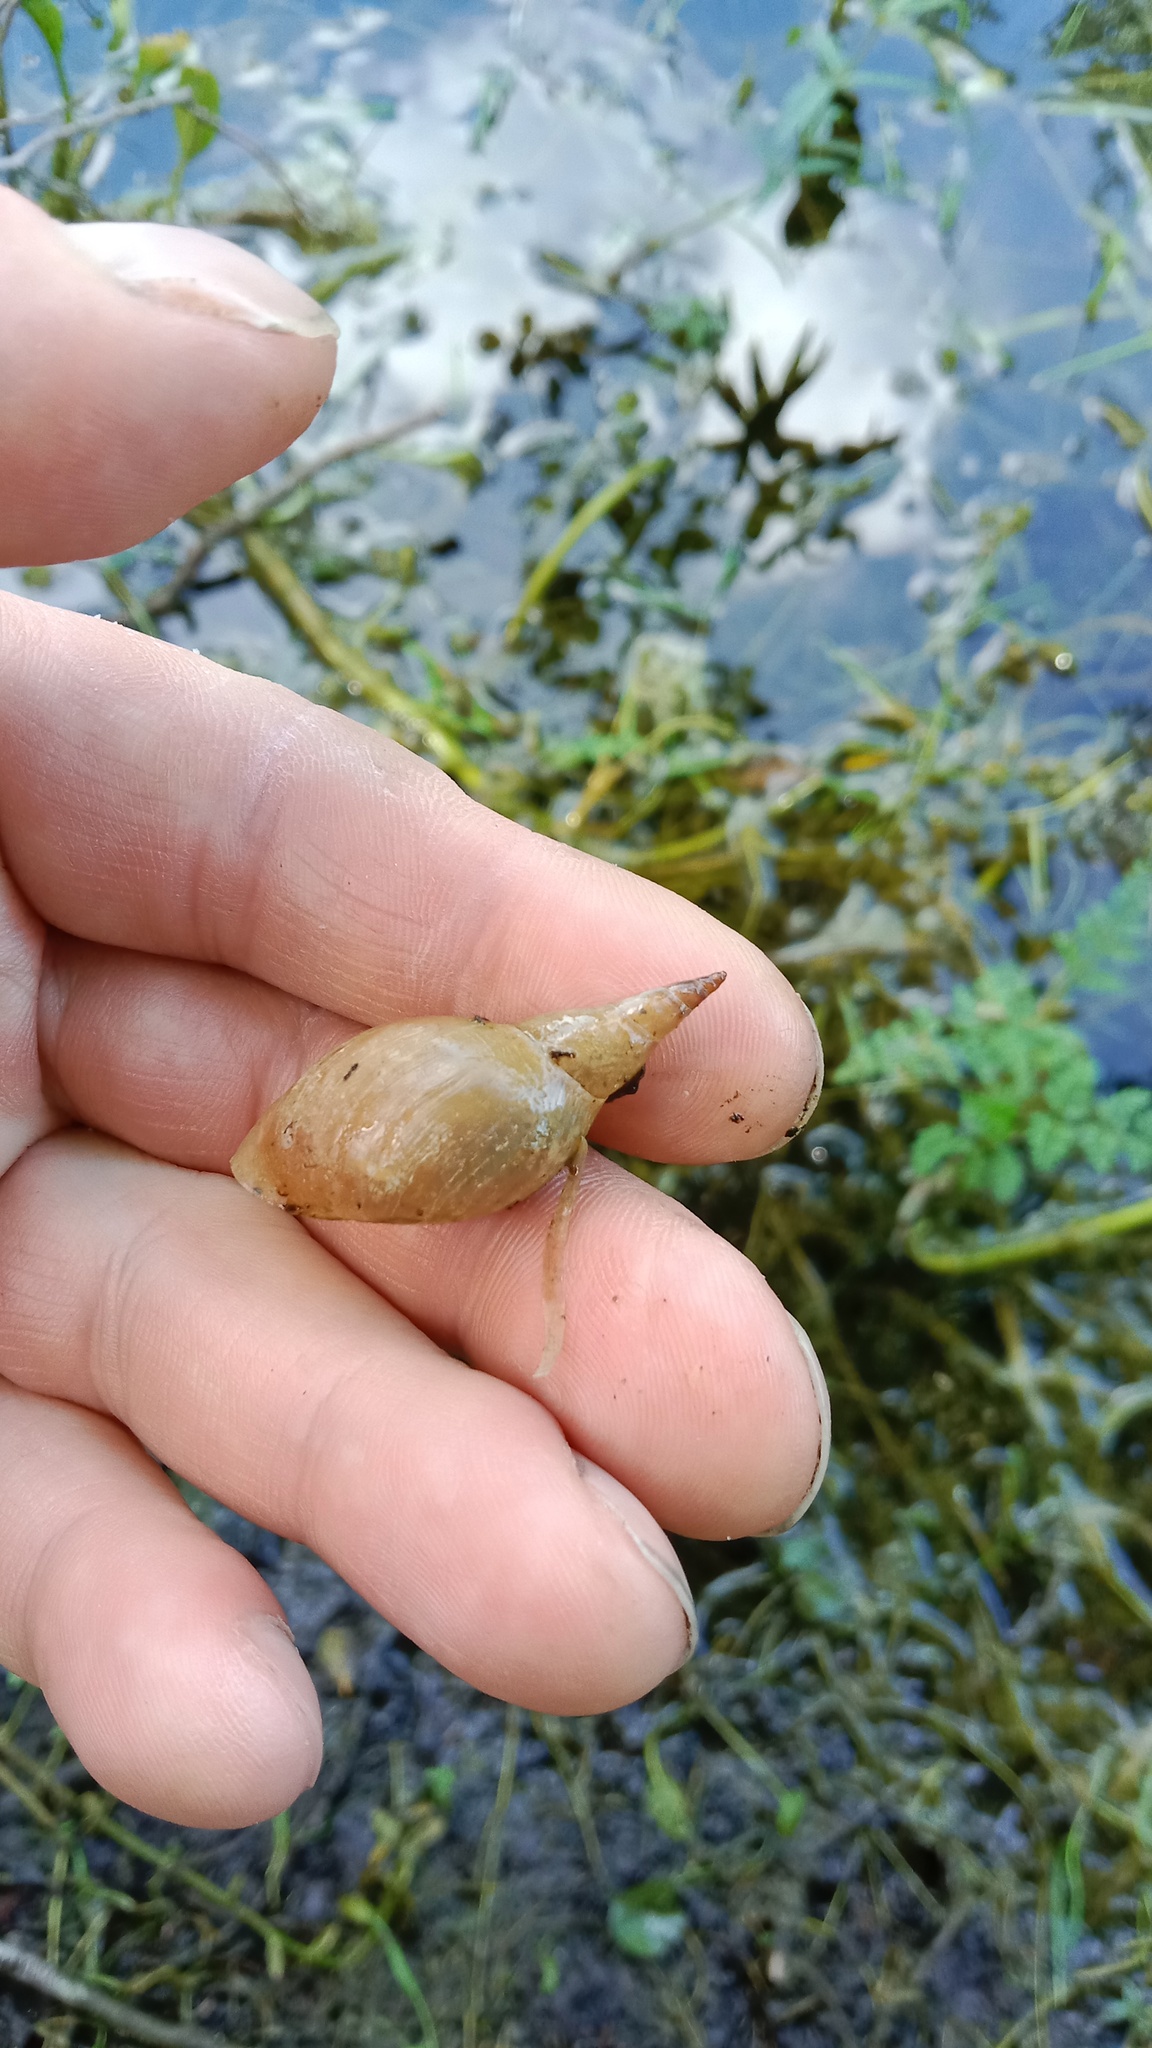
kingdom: Animalia
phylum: Mollusca
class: Gastropoda
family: Lymnaeidae
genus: Lymnaea
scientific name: Lymnaea stagnalis
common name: Great pond snail
